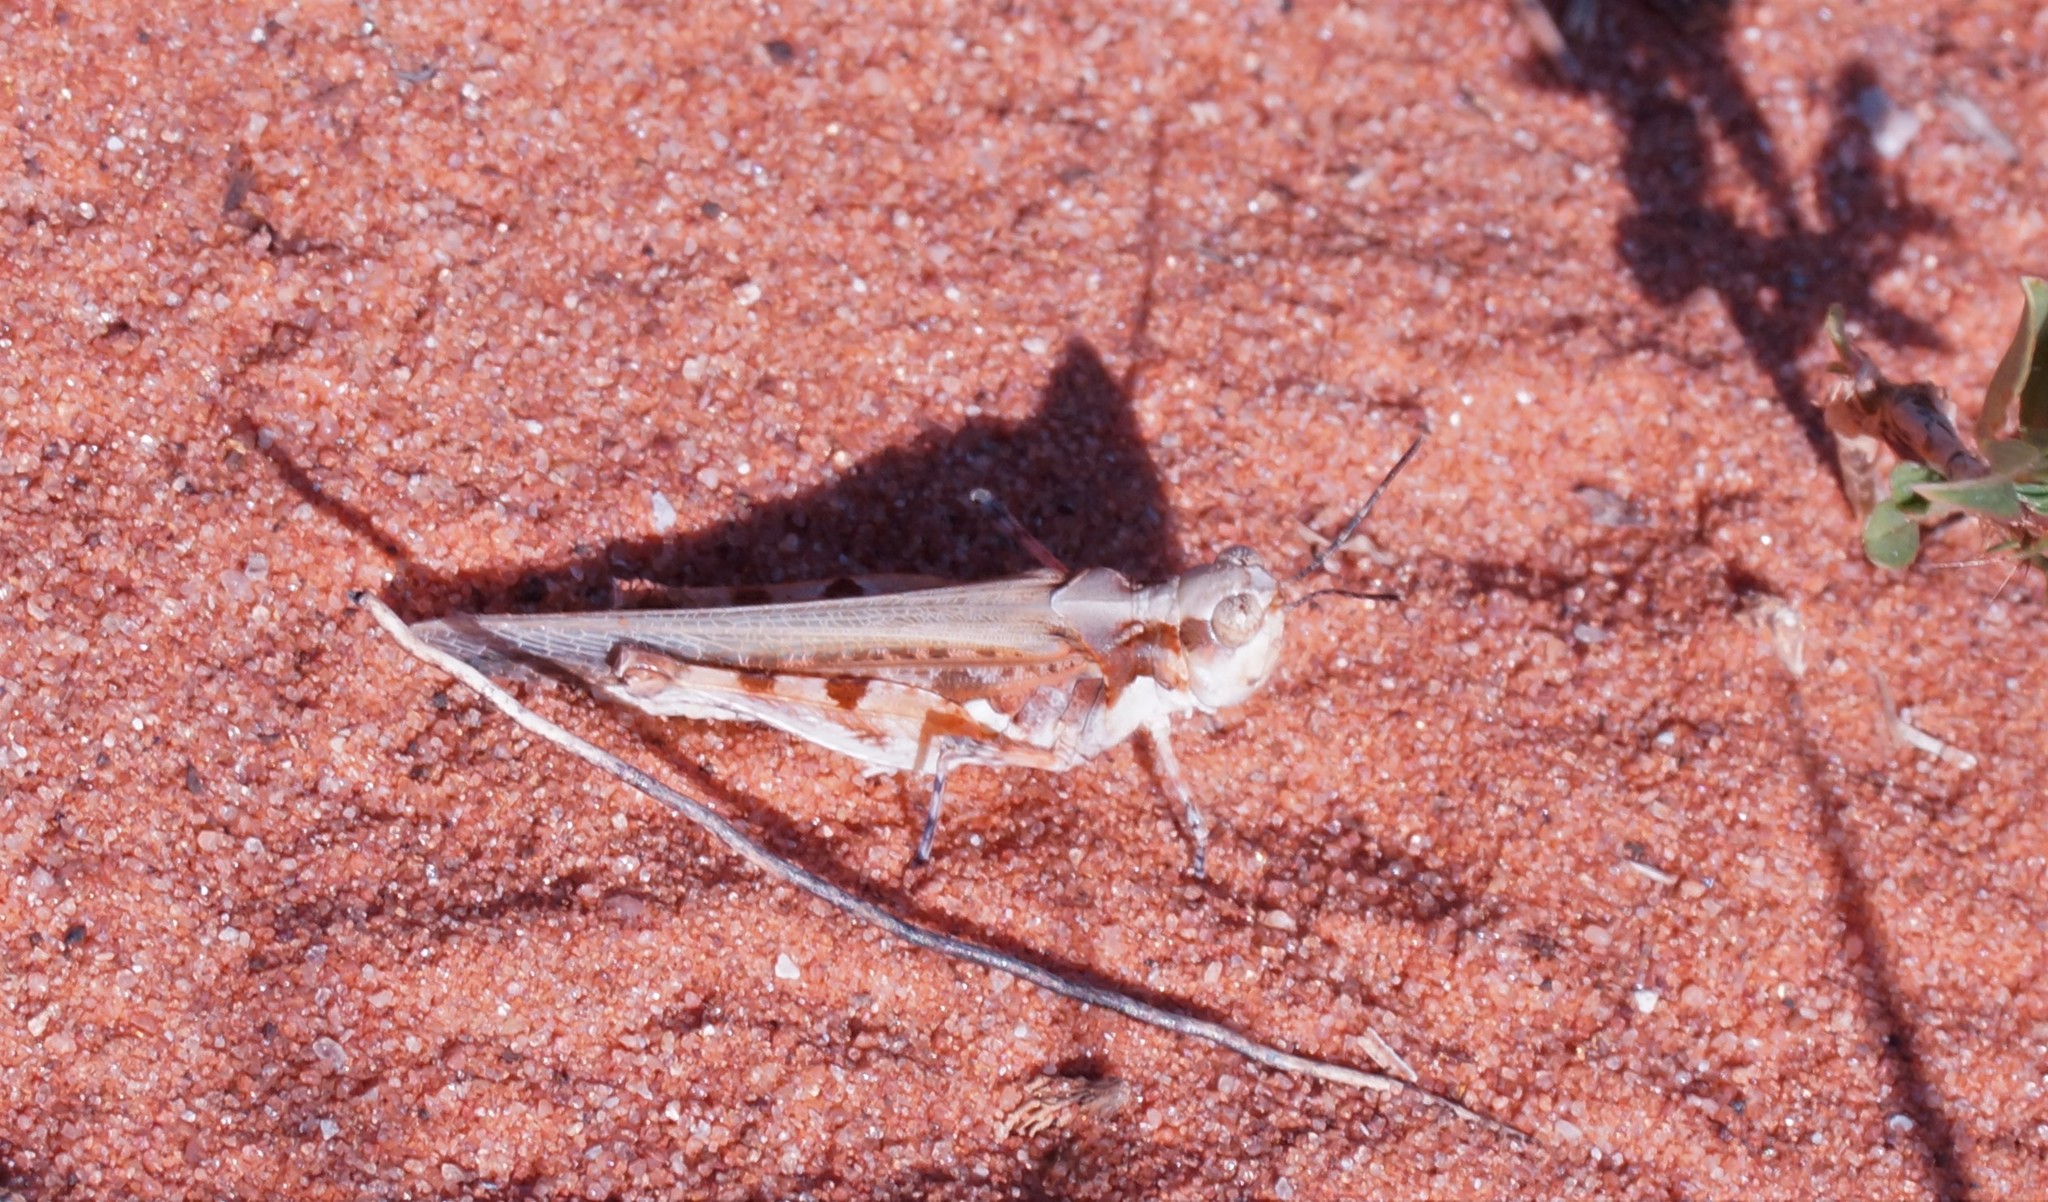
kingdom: Animalia
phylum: Arthropoda
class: Insecta
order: Orthoptera
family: Acrididae
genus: Pycnostictus
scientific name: Pycnostictus seriatus
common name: Common bandwing
